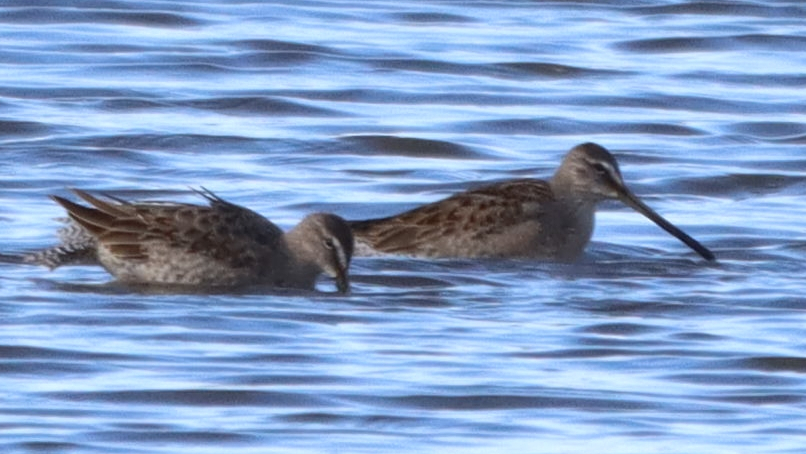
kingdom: Animalia
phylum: Chordata
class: Aves
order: Charadriiformes
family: Scolopacidae
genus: Limnodromus
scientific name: Limnodromus scolopaceus
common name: Long-billed dowitcher
